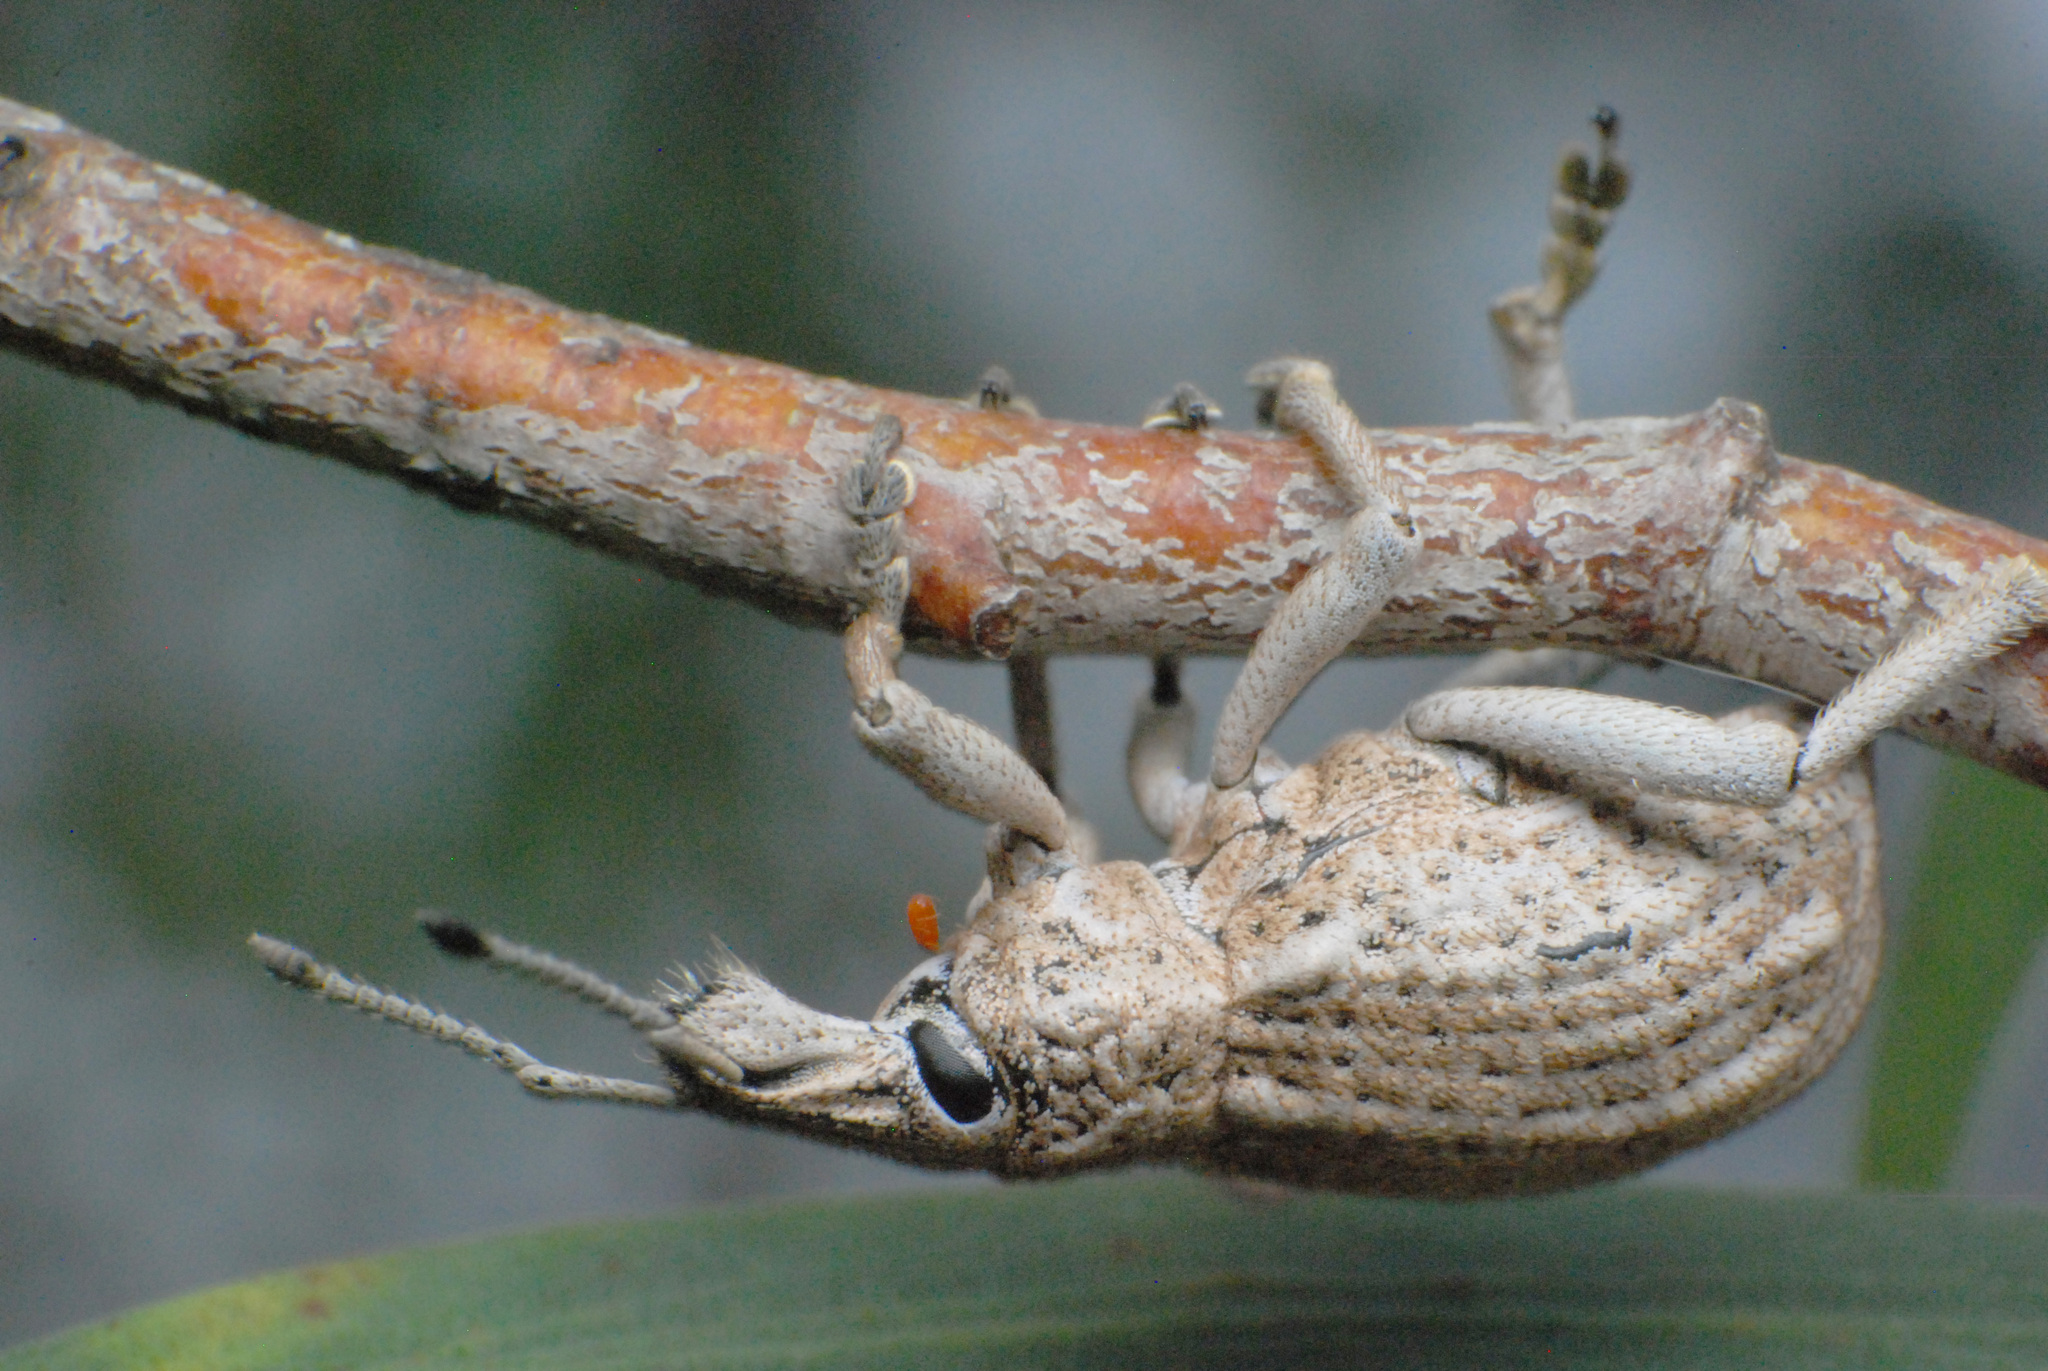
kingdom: Animalia
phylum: Arthropoda
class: Insecta
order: Coleoptera
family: Curculionidae
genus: Leptopius
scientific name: Leptopius robustus
